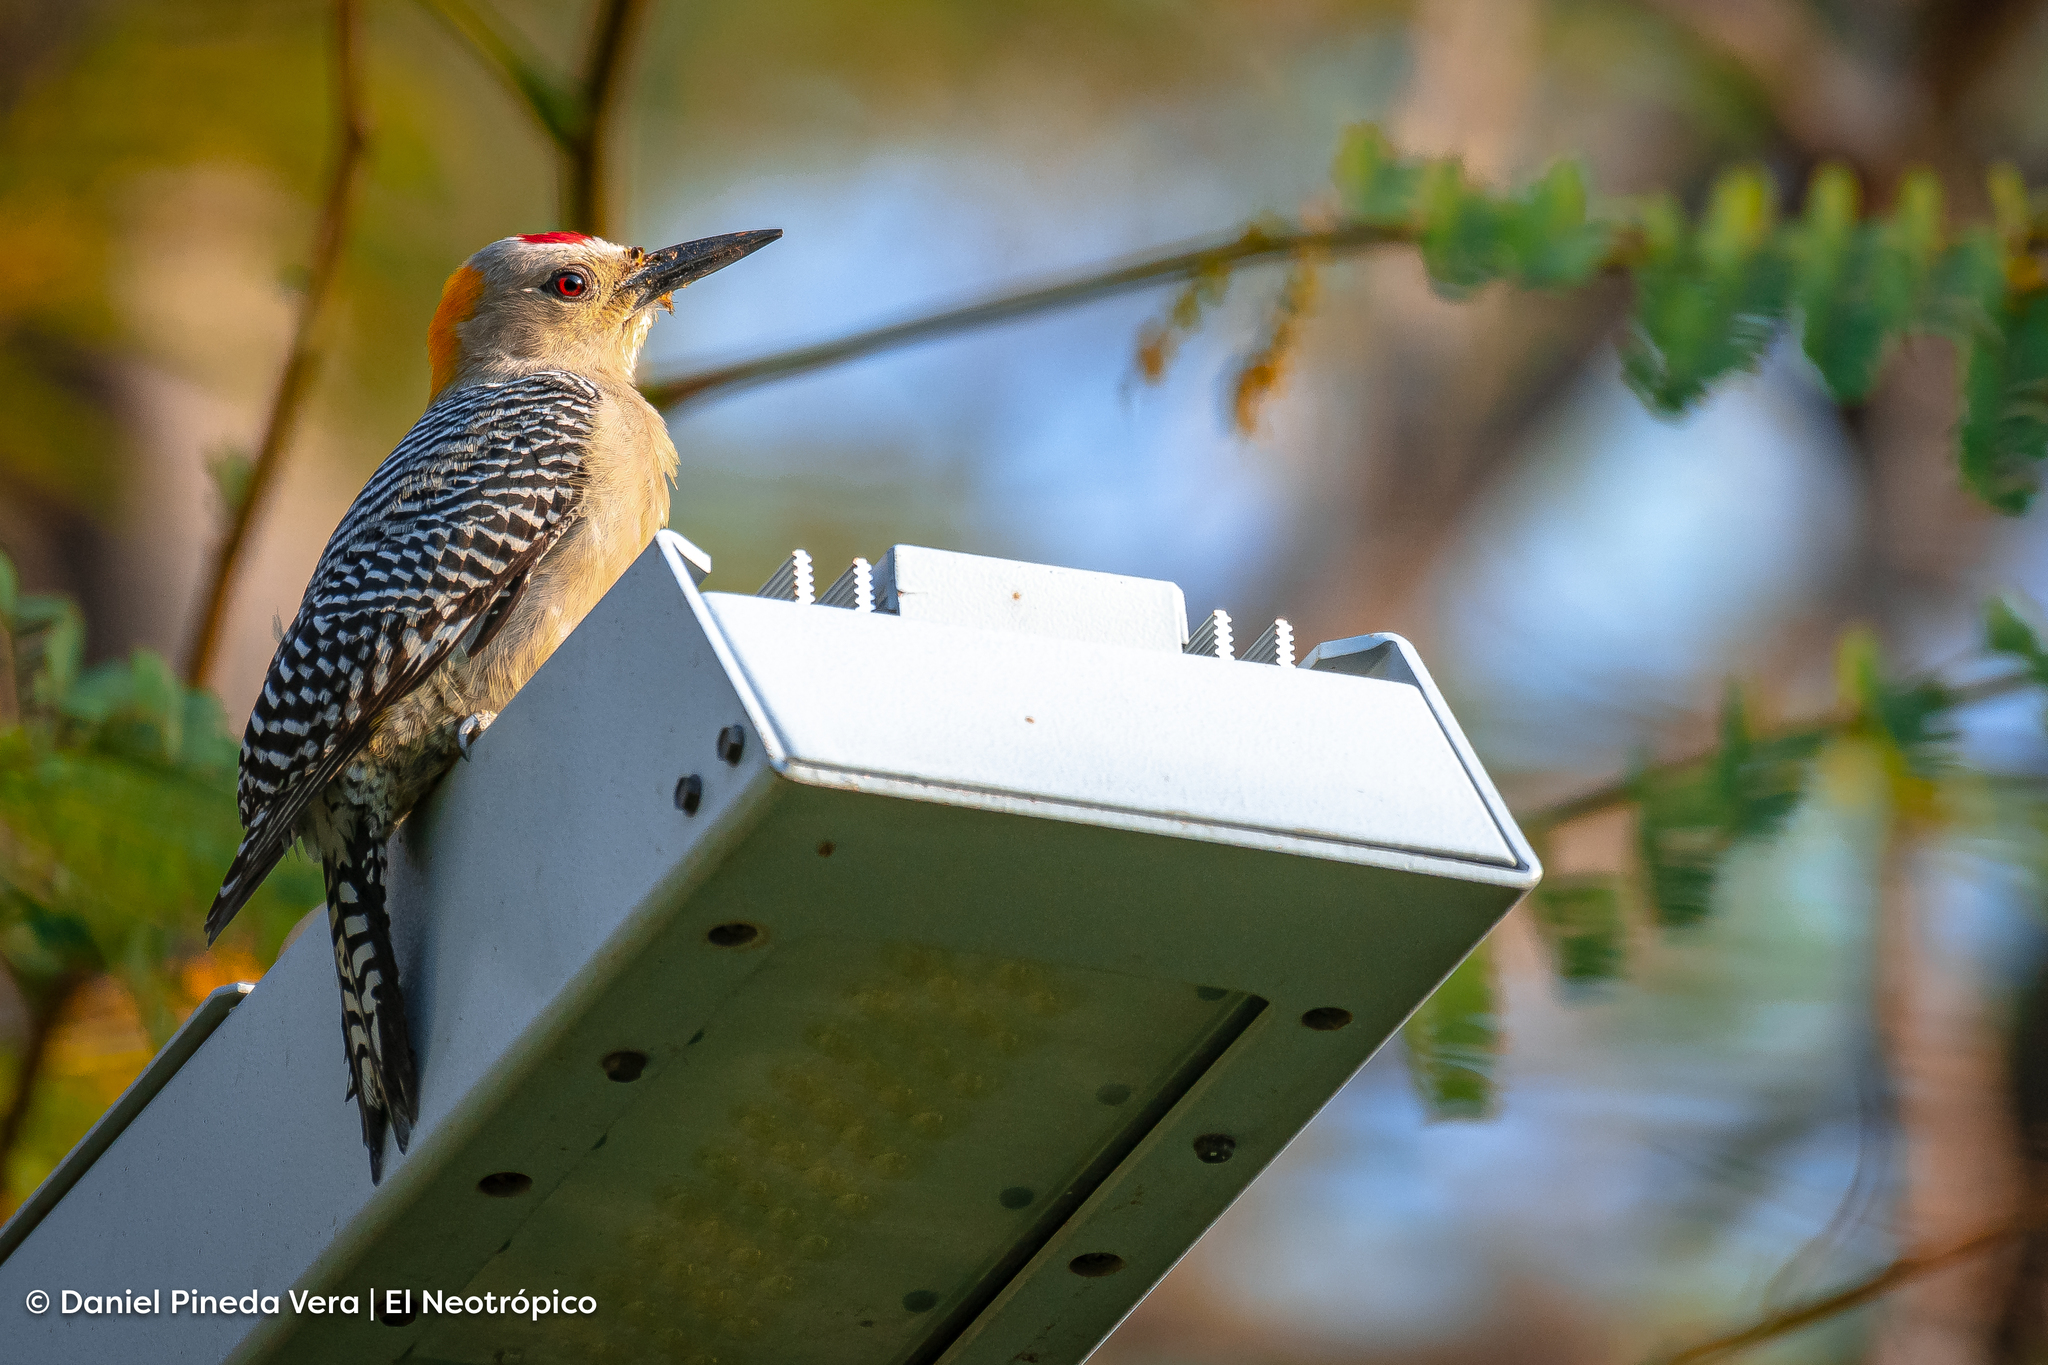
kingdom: Animalia
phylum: Chordata
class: Aves
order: Piciformes
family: Picidae
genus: Melanerpes
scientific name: Melanerpes aurifrons
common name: Golden-fronted woodpecker
